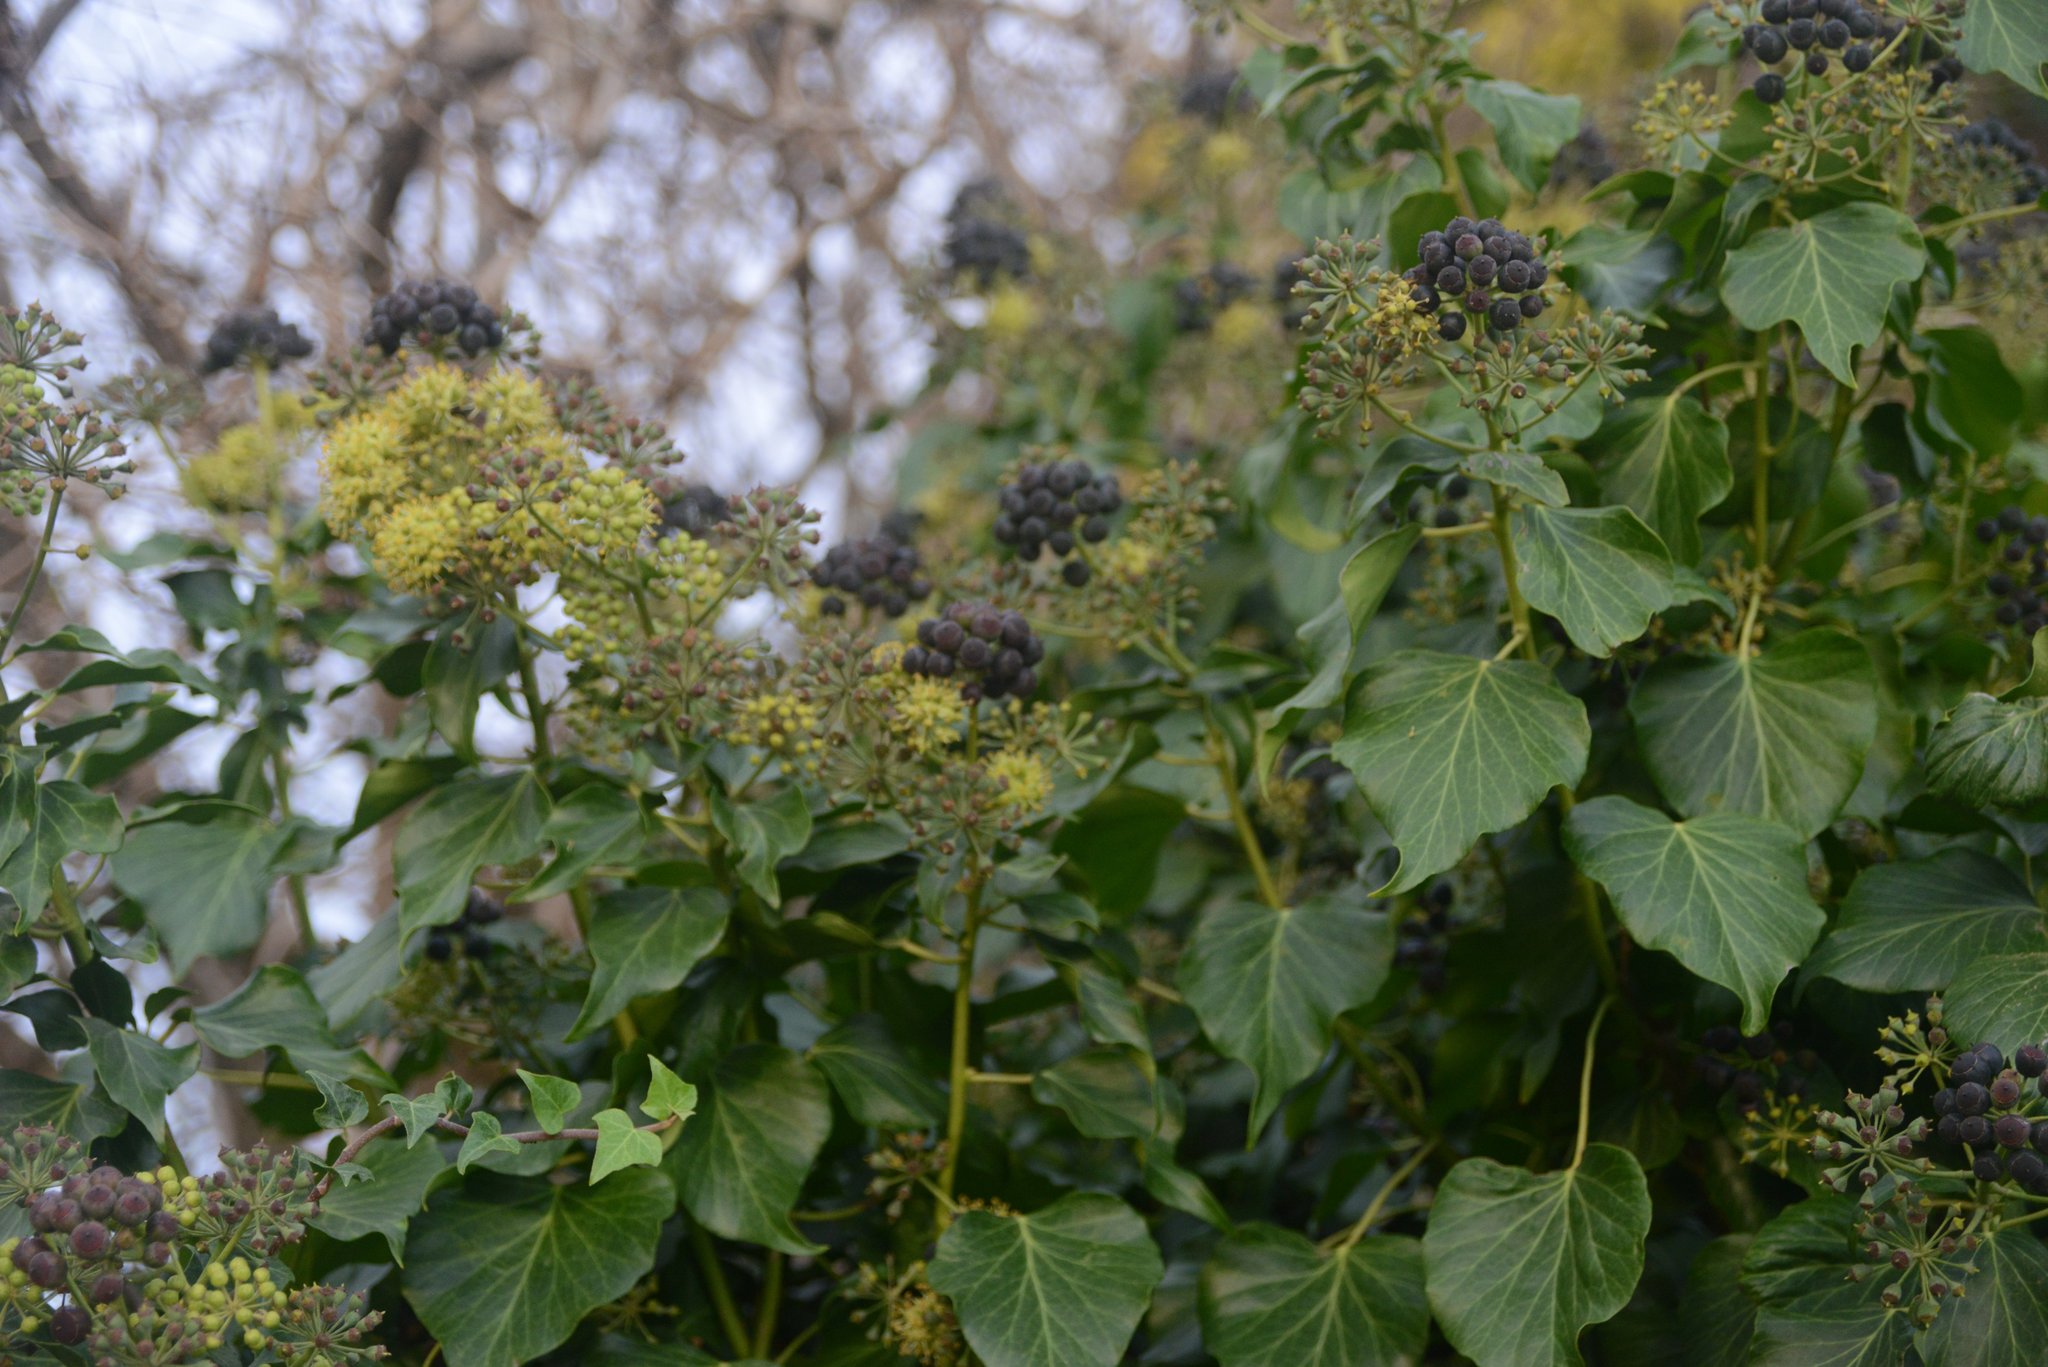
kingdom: Plantae
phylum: Tracheophyta
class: Magnoliopsida
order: Apiales
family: Araliaceae
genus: Hedera
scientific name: Hedera canariensis
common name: Madeira ivy
